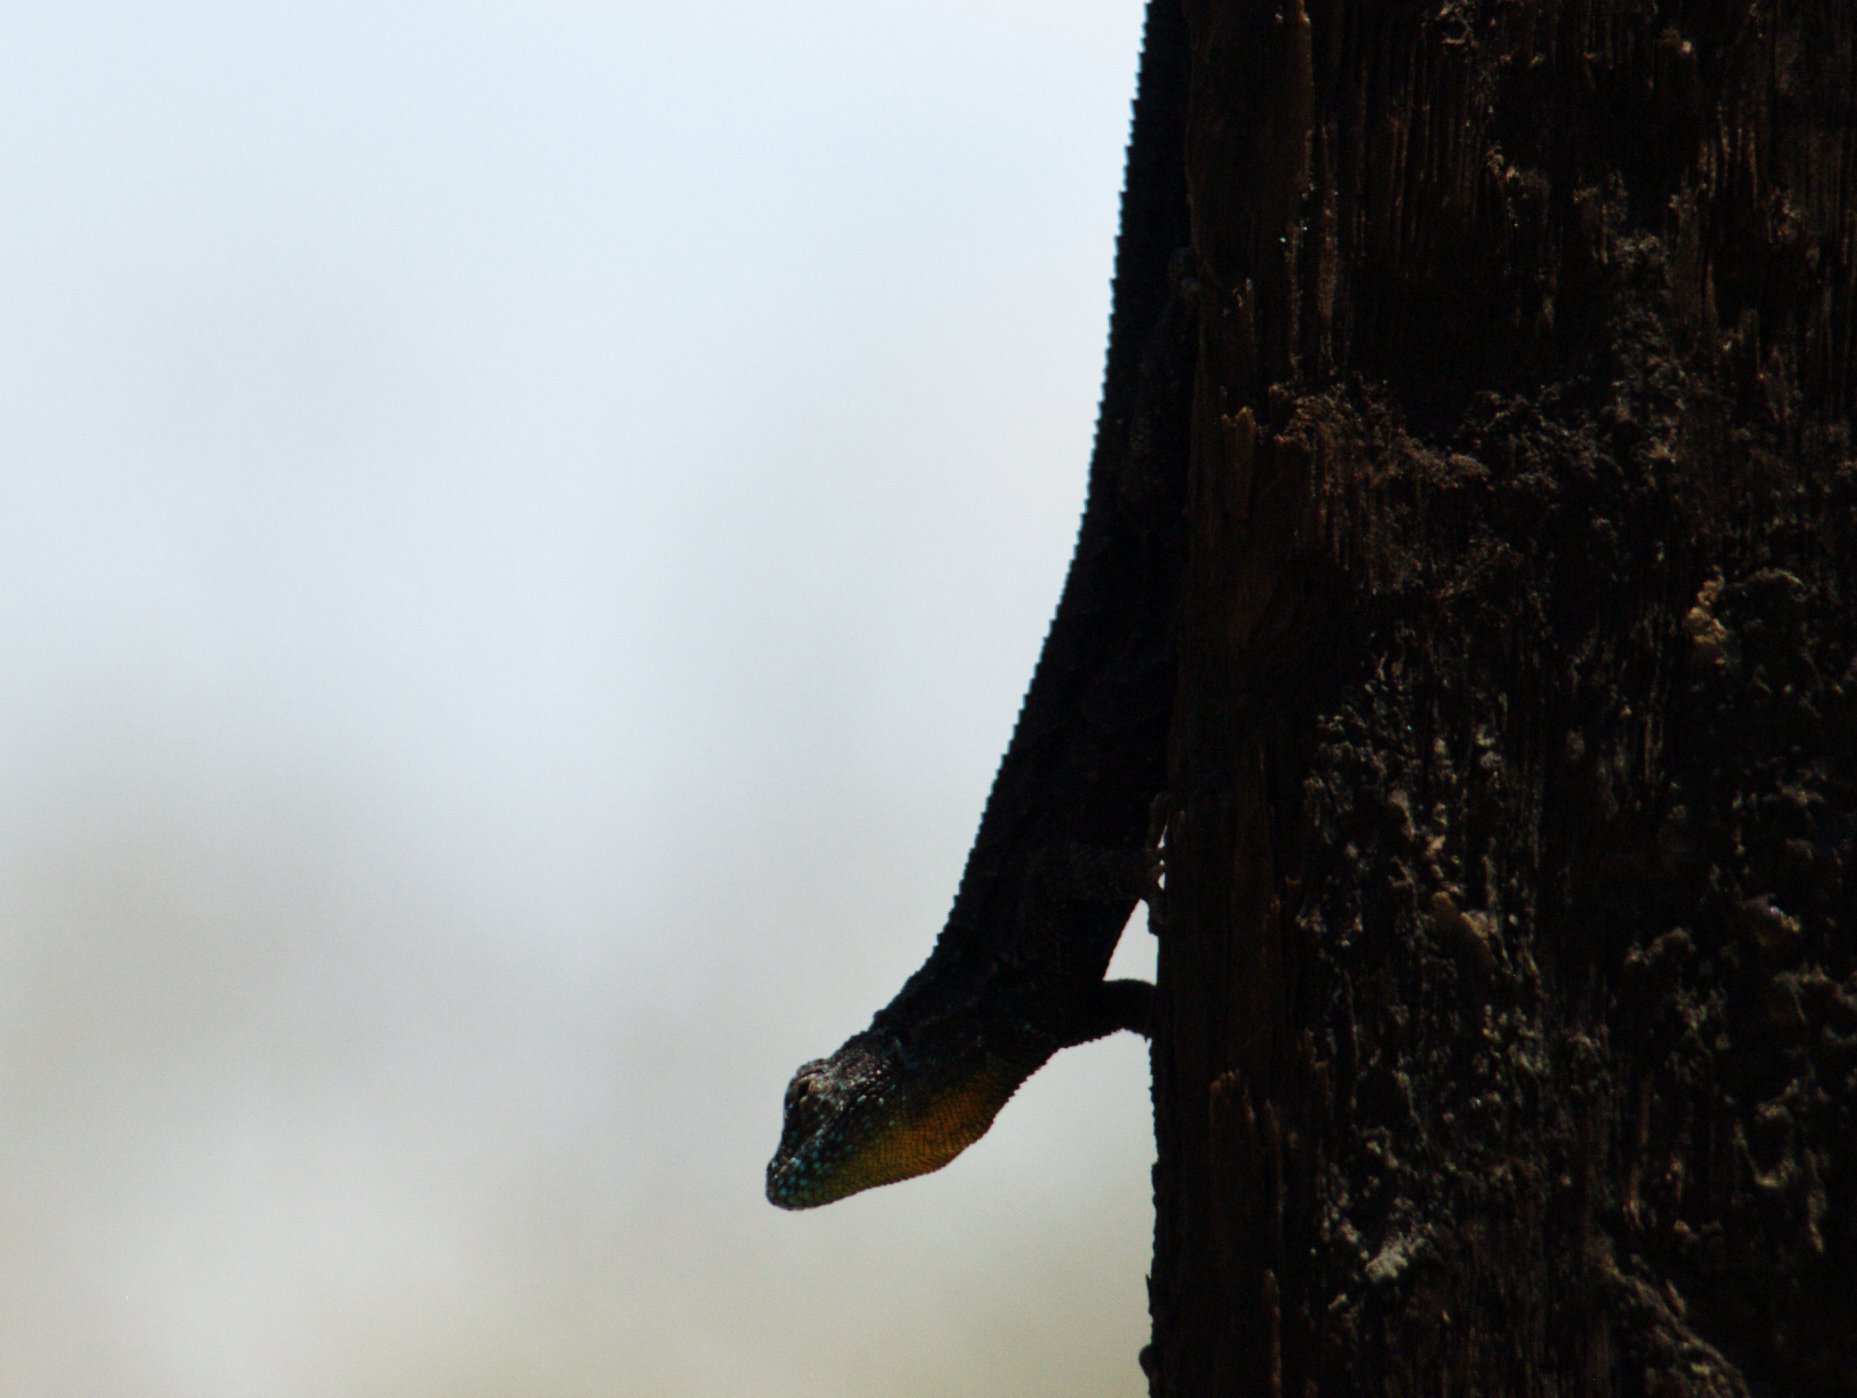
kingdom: Animalia
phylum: Chordata
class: Squamata
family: Phrynosomatidae
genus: Urosaurus
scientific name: Urosaurus ornatus
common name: Ornate tree lizard
